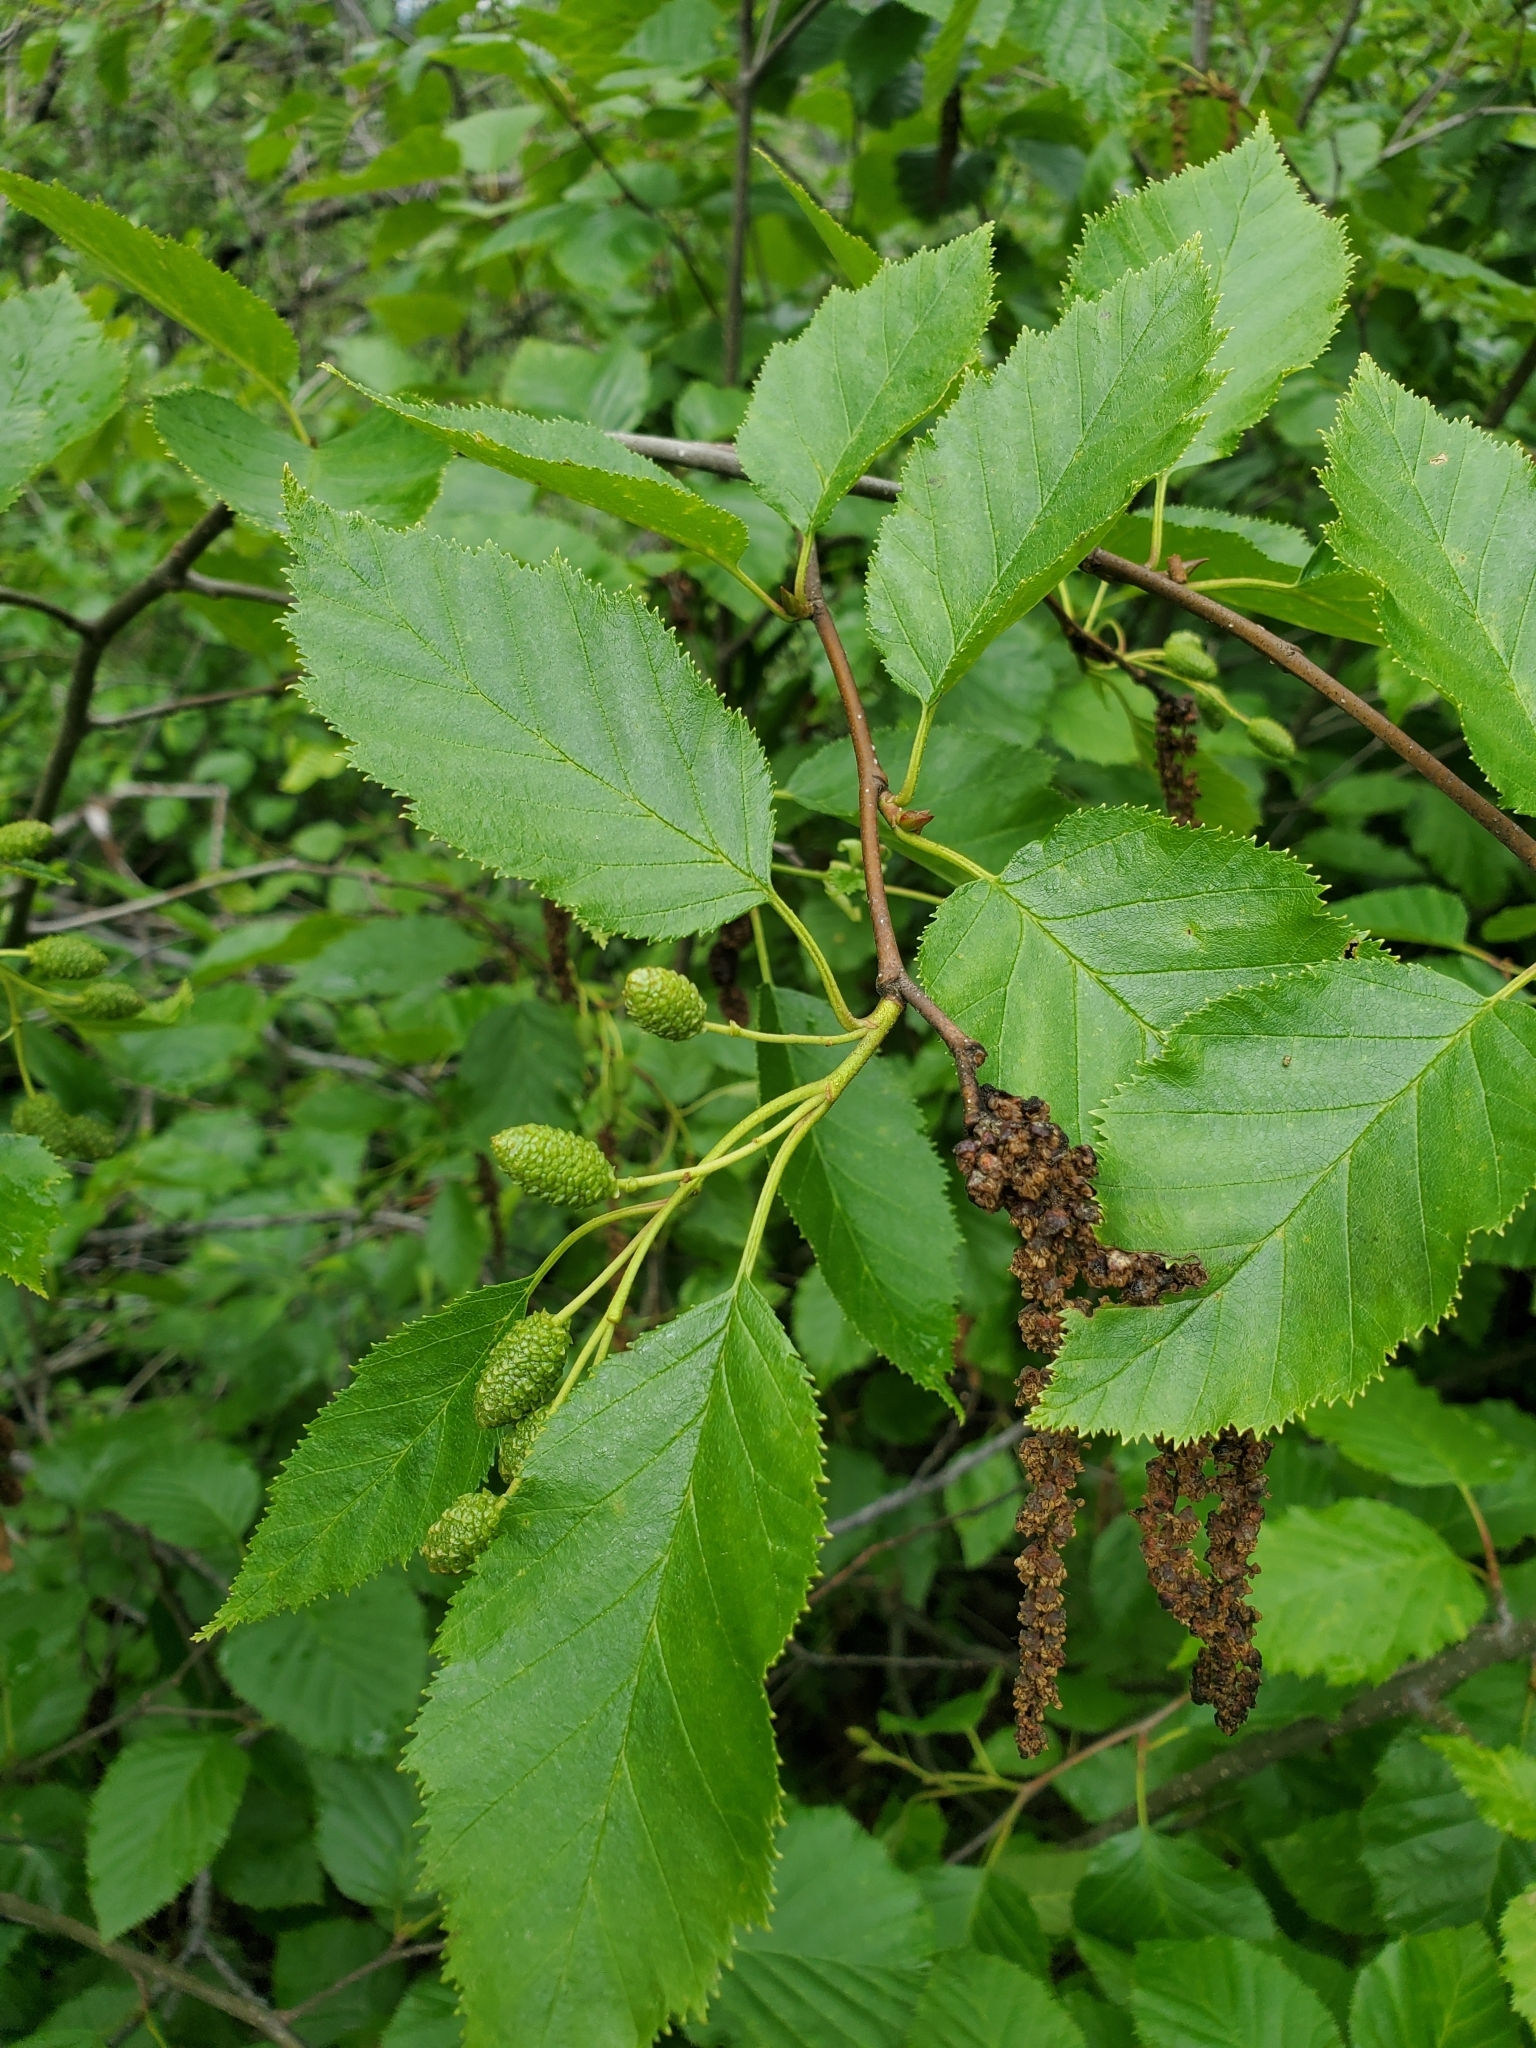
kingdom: Plantae
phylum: Tracheophyta
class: Magnoliopsida
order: Fagales
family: Betulaceae
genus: Alnus
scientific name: Alnus alnobetula
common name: Green alder
